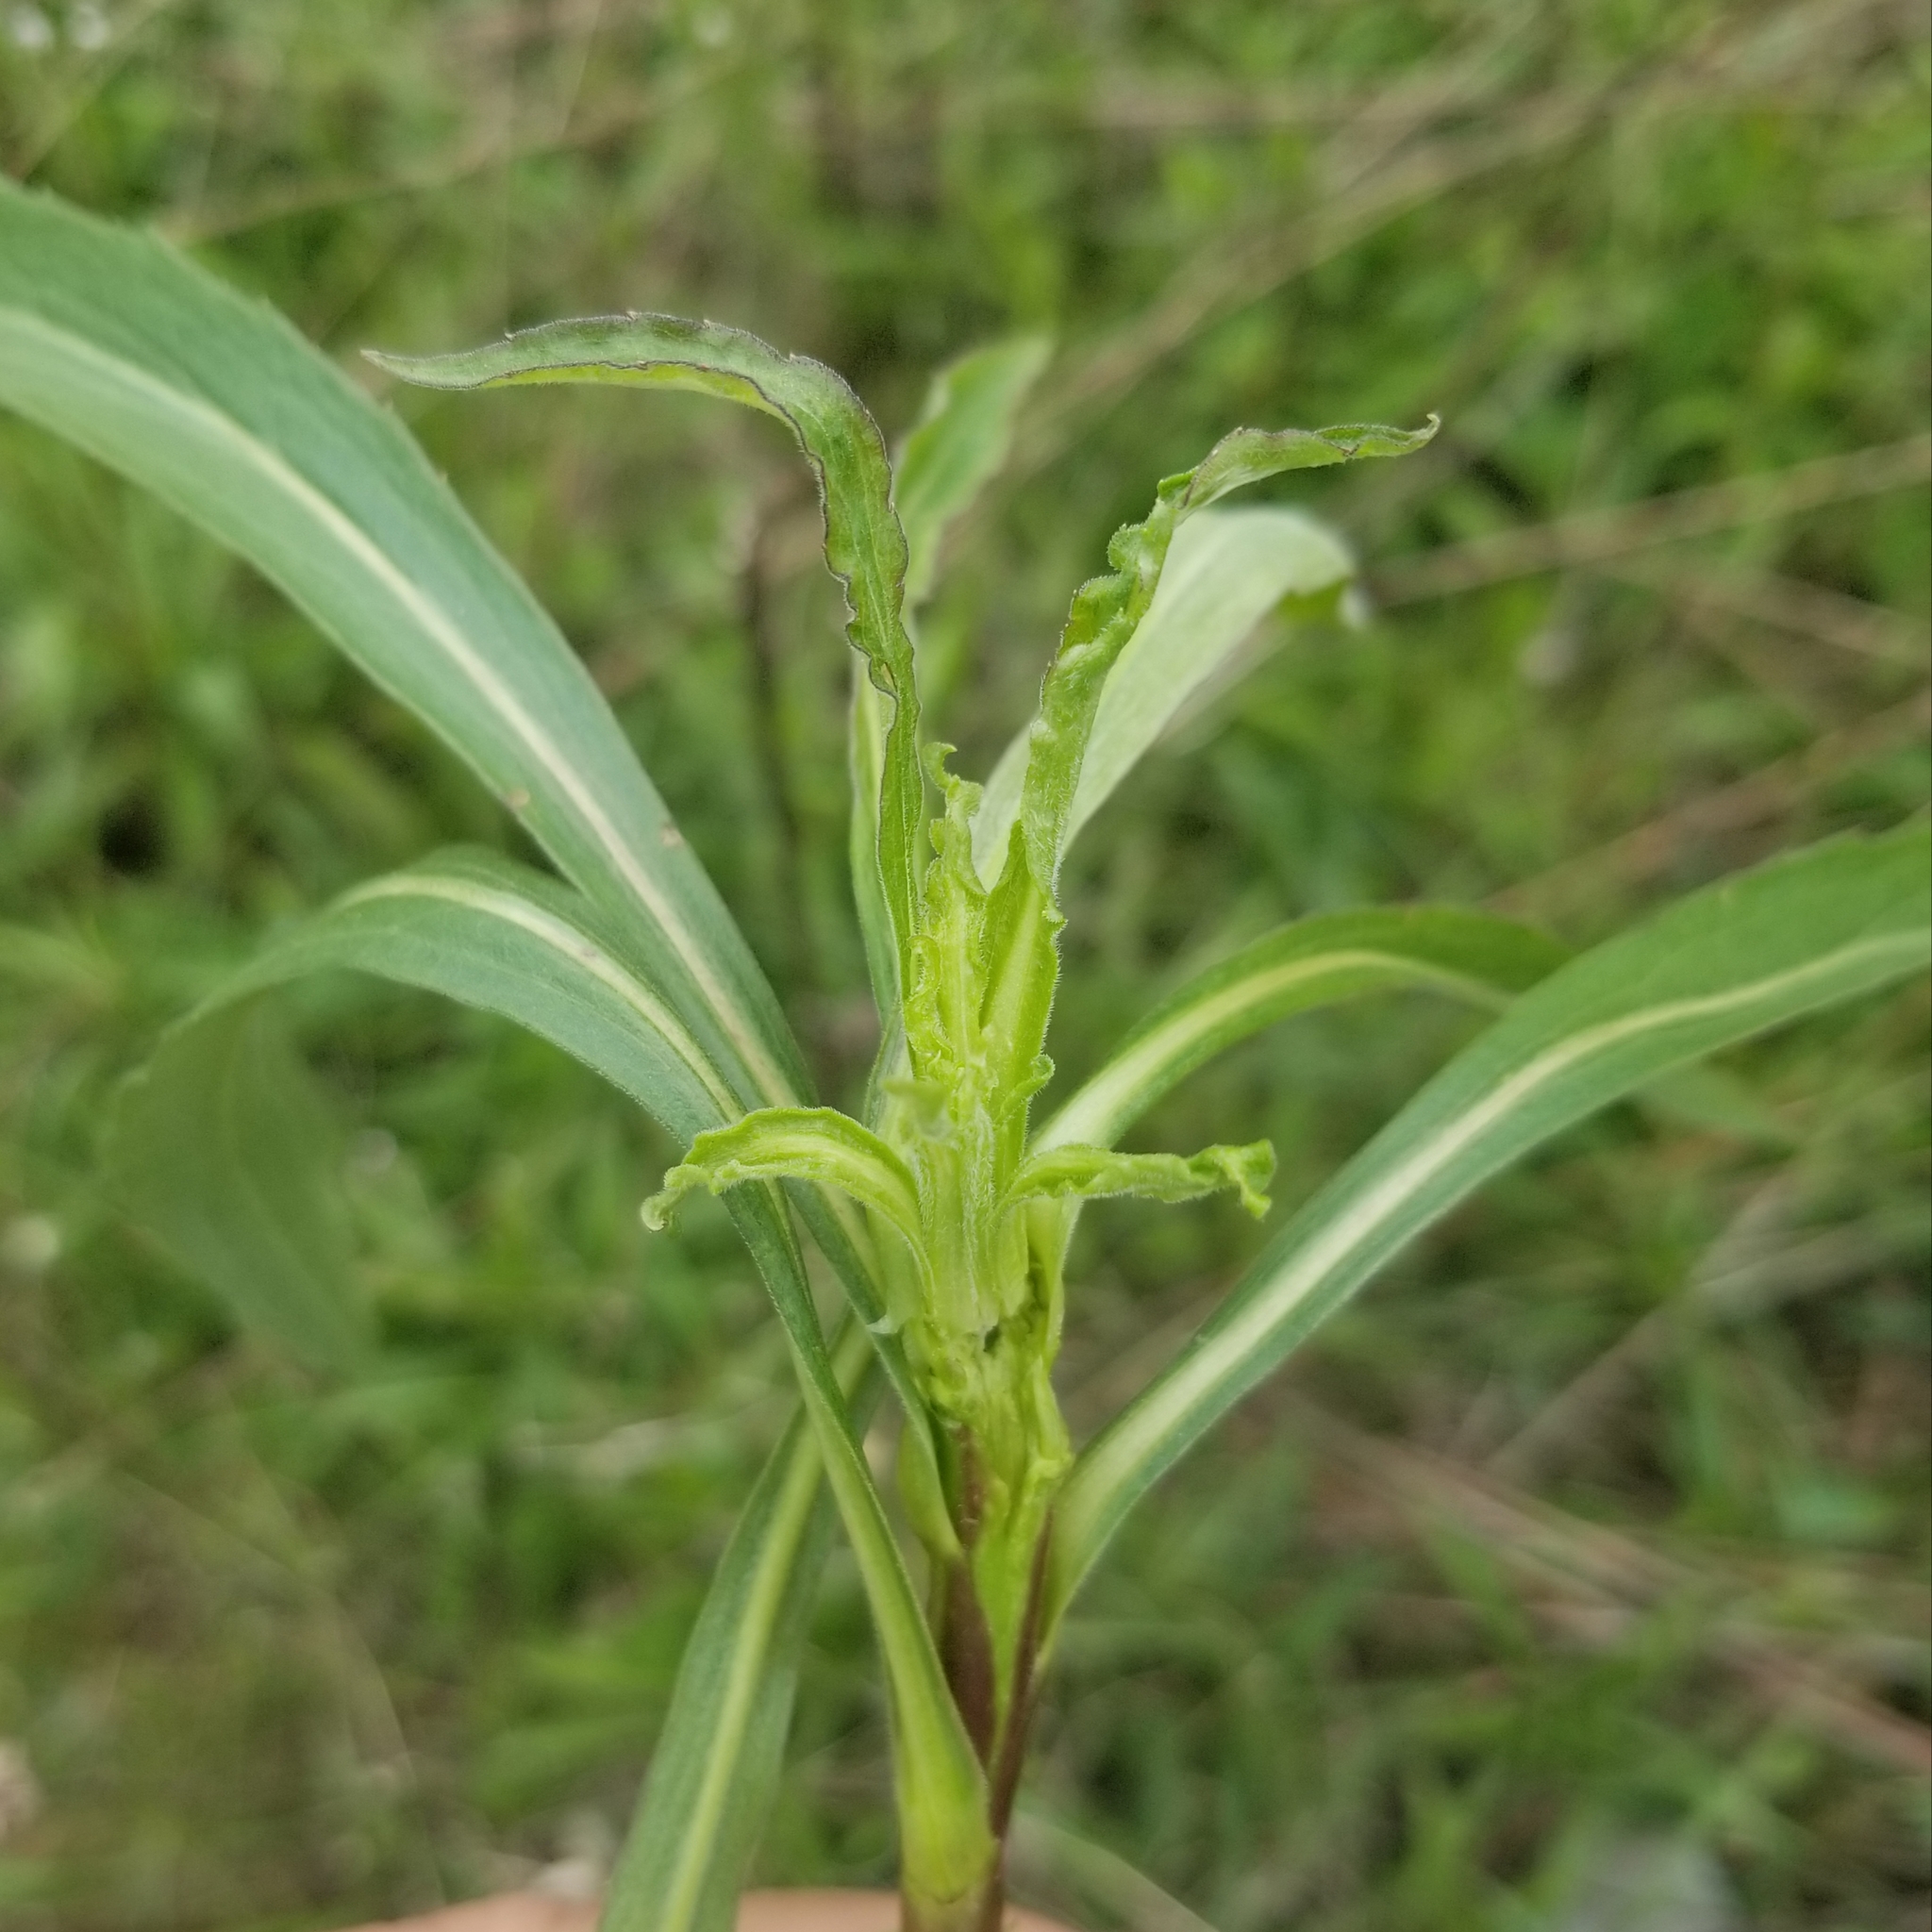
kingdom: Animalia
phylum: Arthropoda
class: Insecta
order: Diptera
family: Cecidomyiidae
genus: Rhopalomyia
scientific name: Rhopalomyia solidaginis
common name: Goldenrod bunch gall midge
